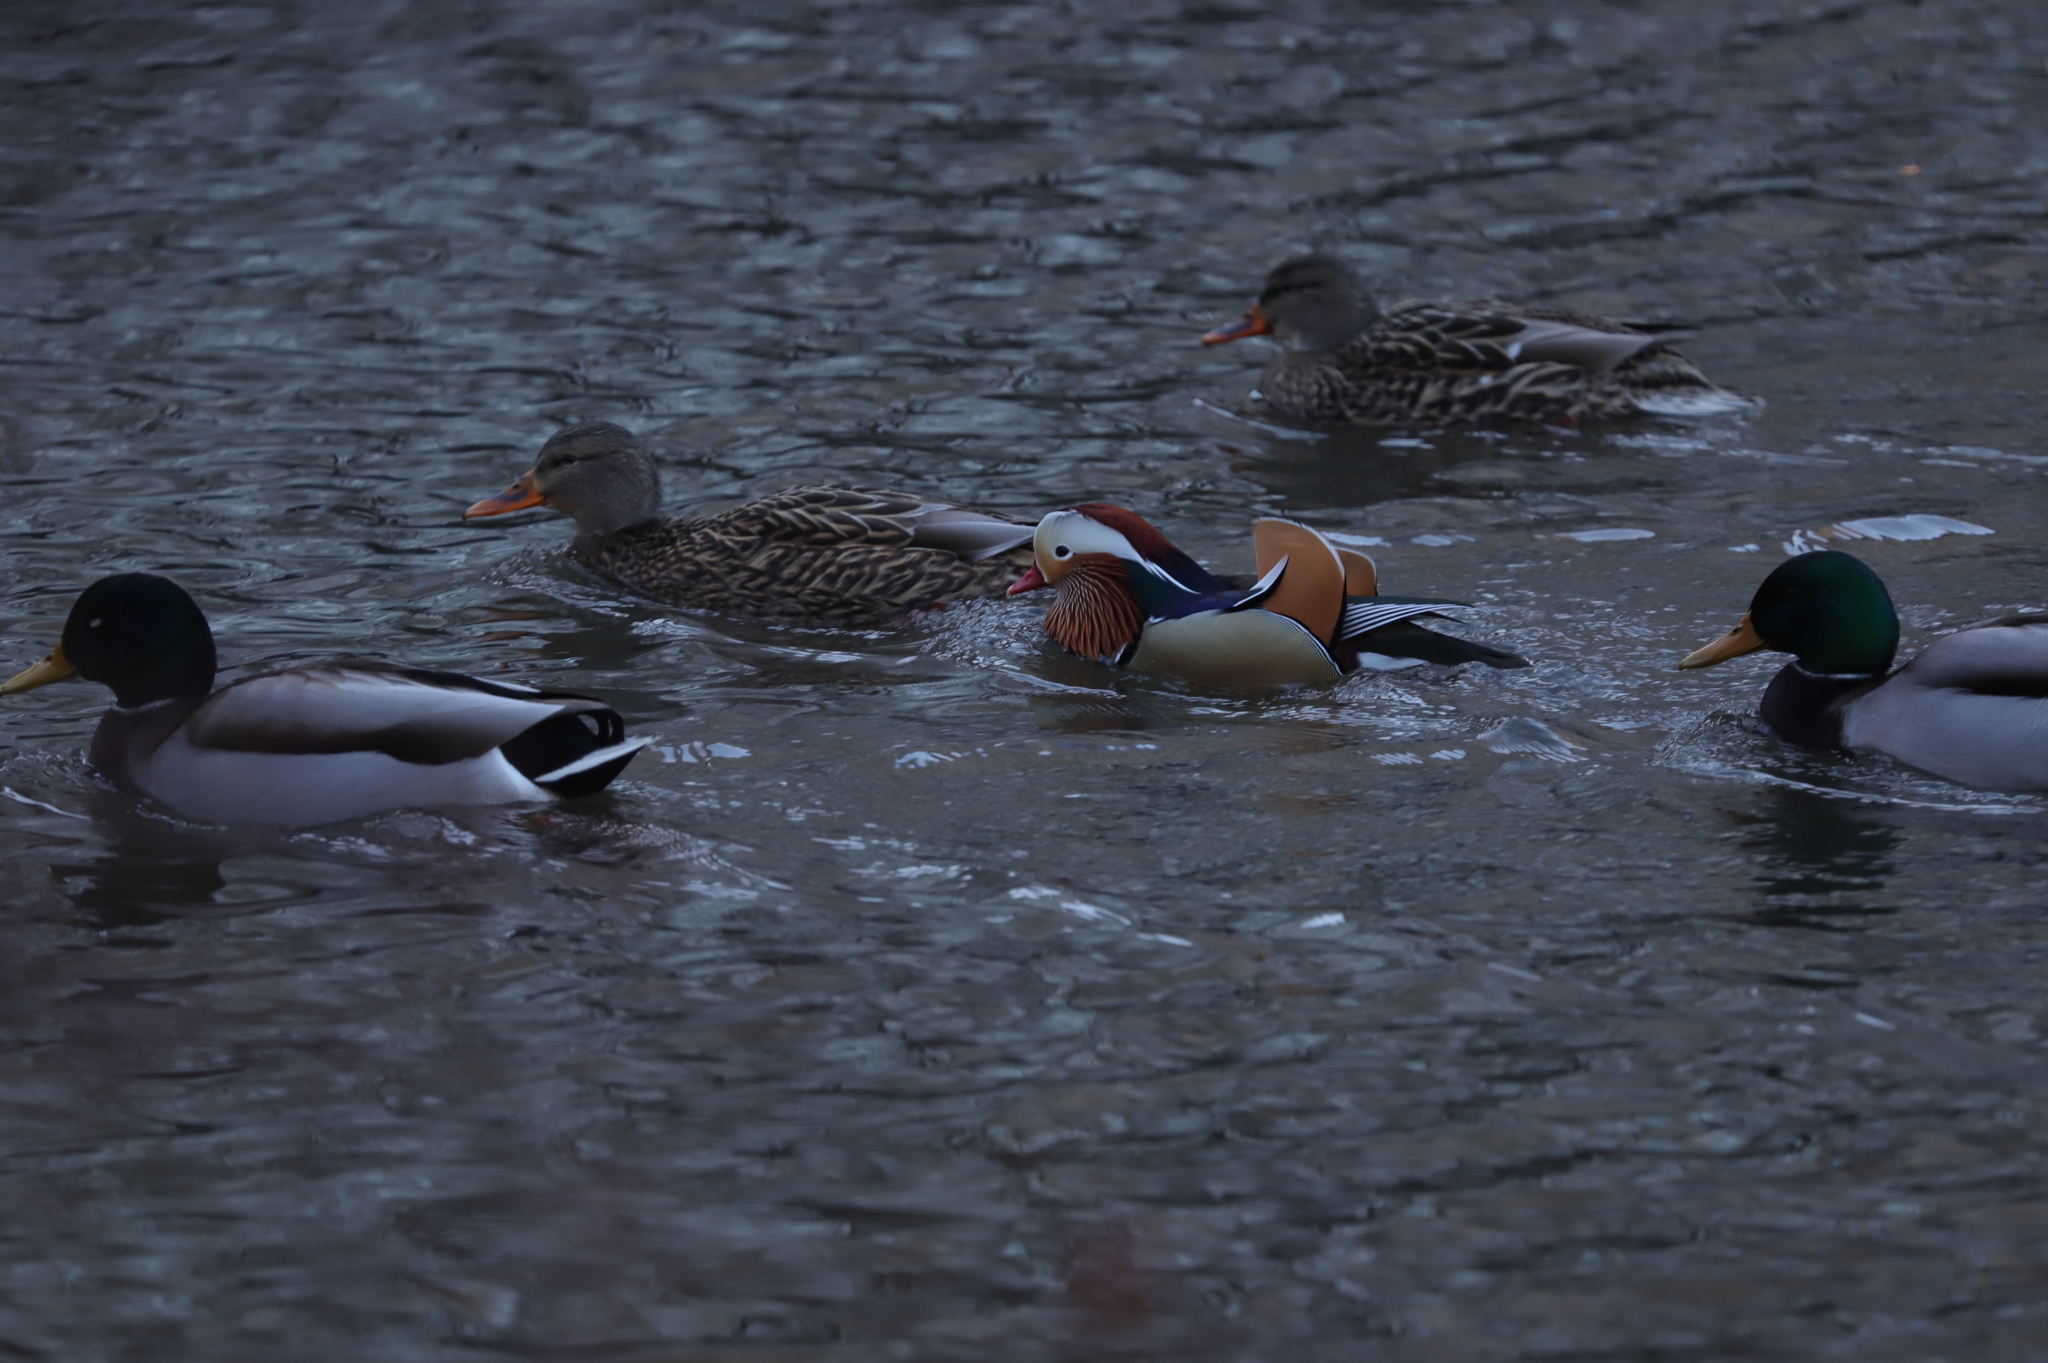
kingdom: Animalia
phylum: Chordata
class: Aves
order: Anseriformes
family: Anatidae
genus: Aix
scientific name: Aix galericulata
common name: Mandarin duck
